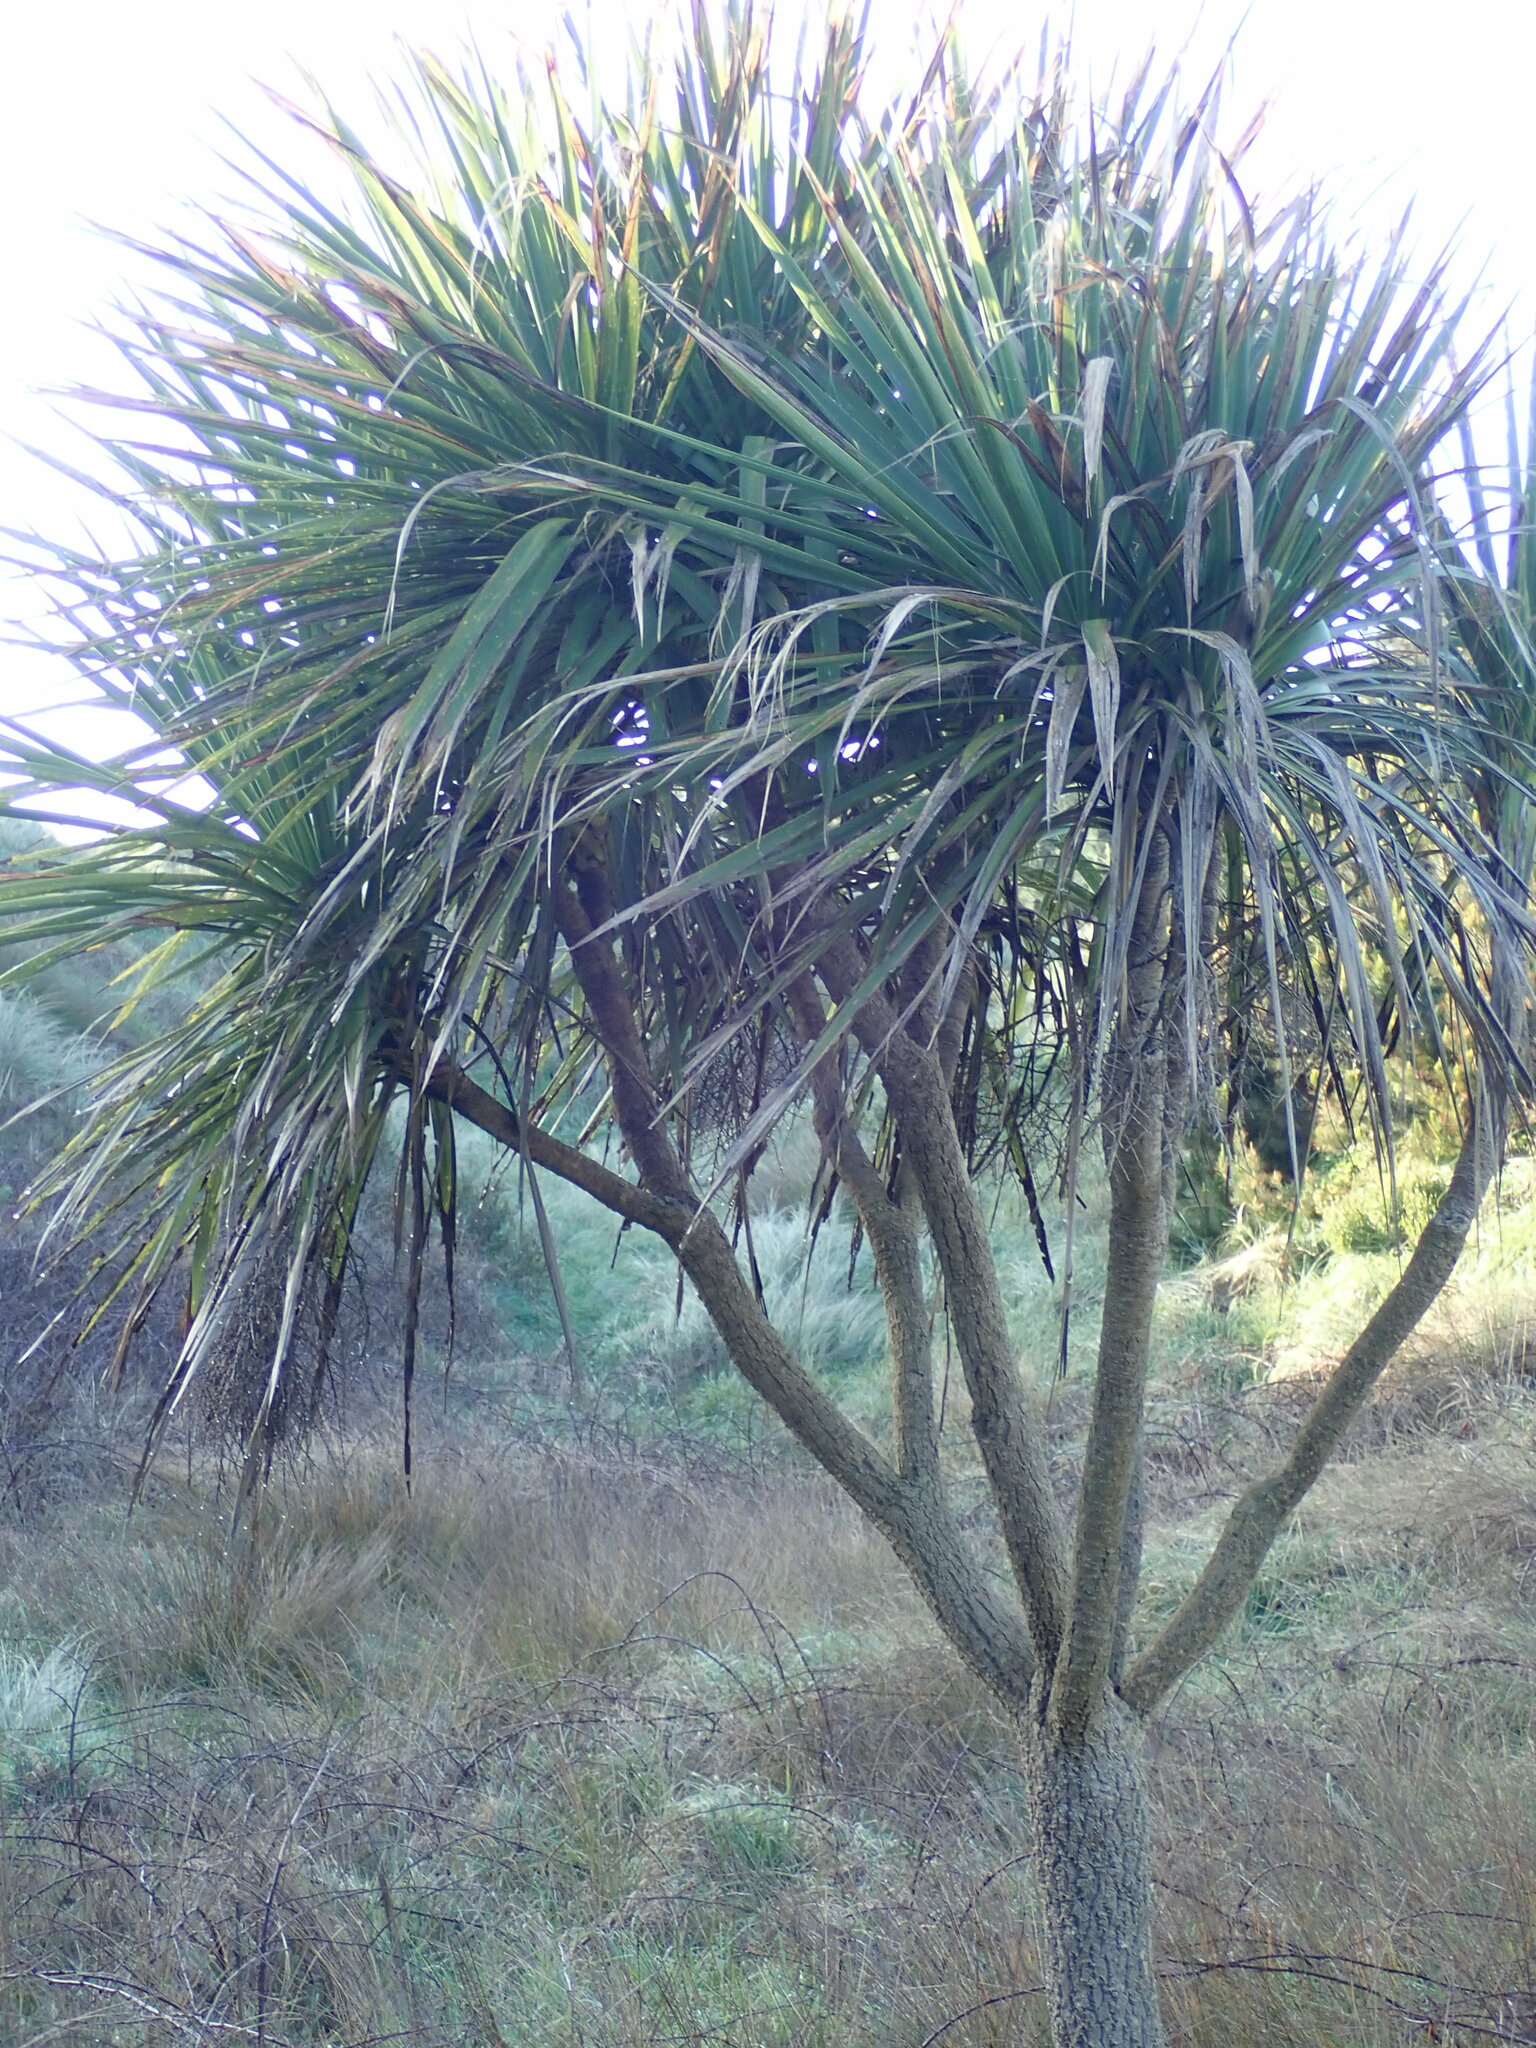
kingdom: Plantae
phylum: Tracheophyta
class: Liliopsida
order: Asparagales
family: Asparagaceae
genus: Cordyline
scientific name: Cordyline australis
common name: Cabbage-palm
